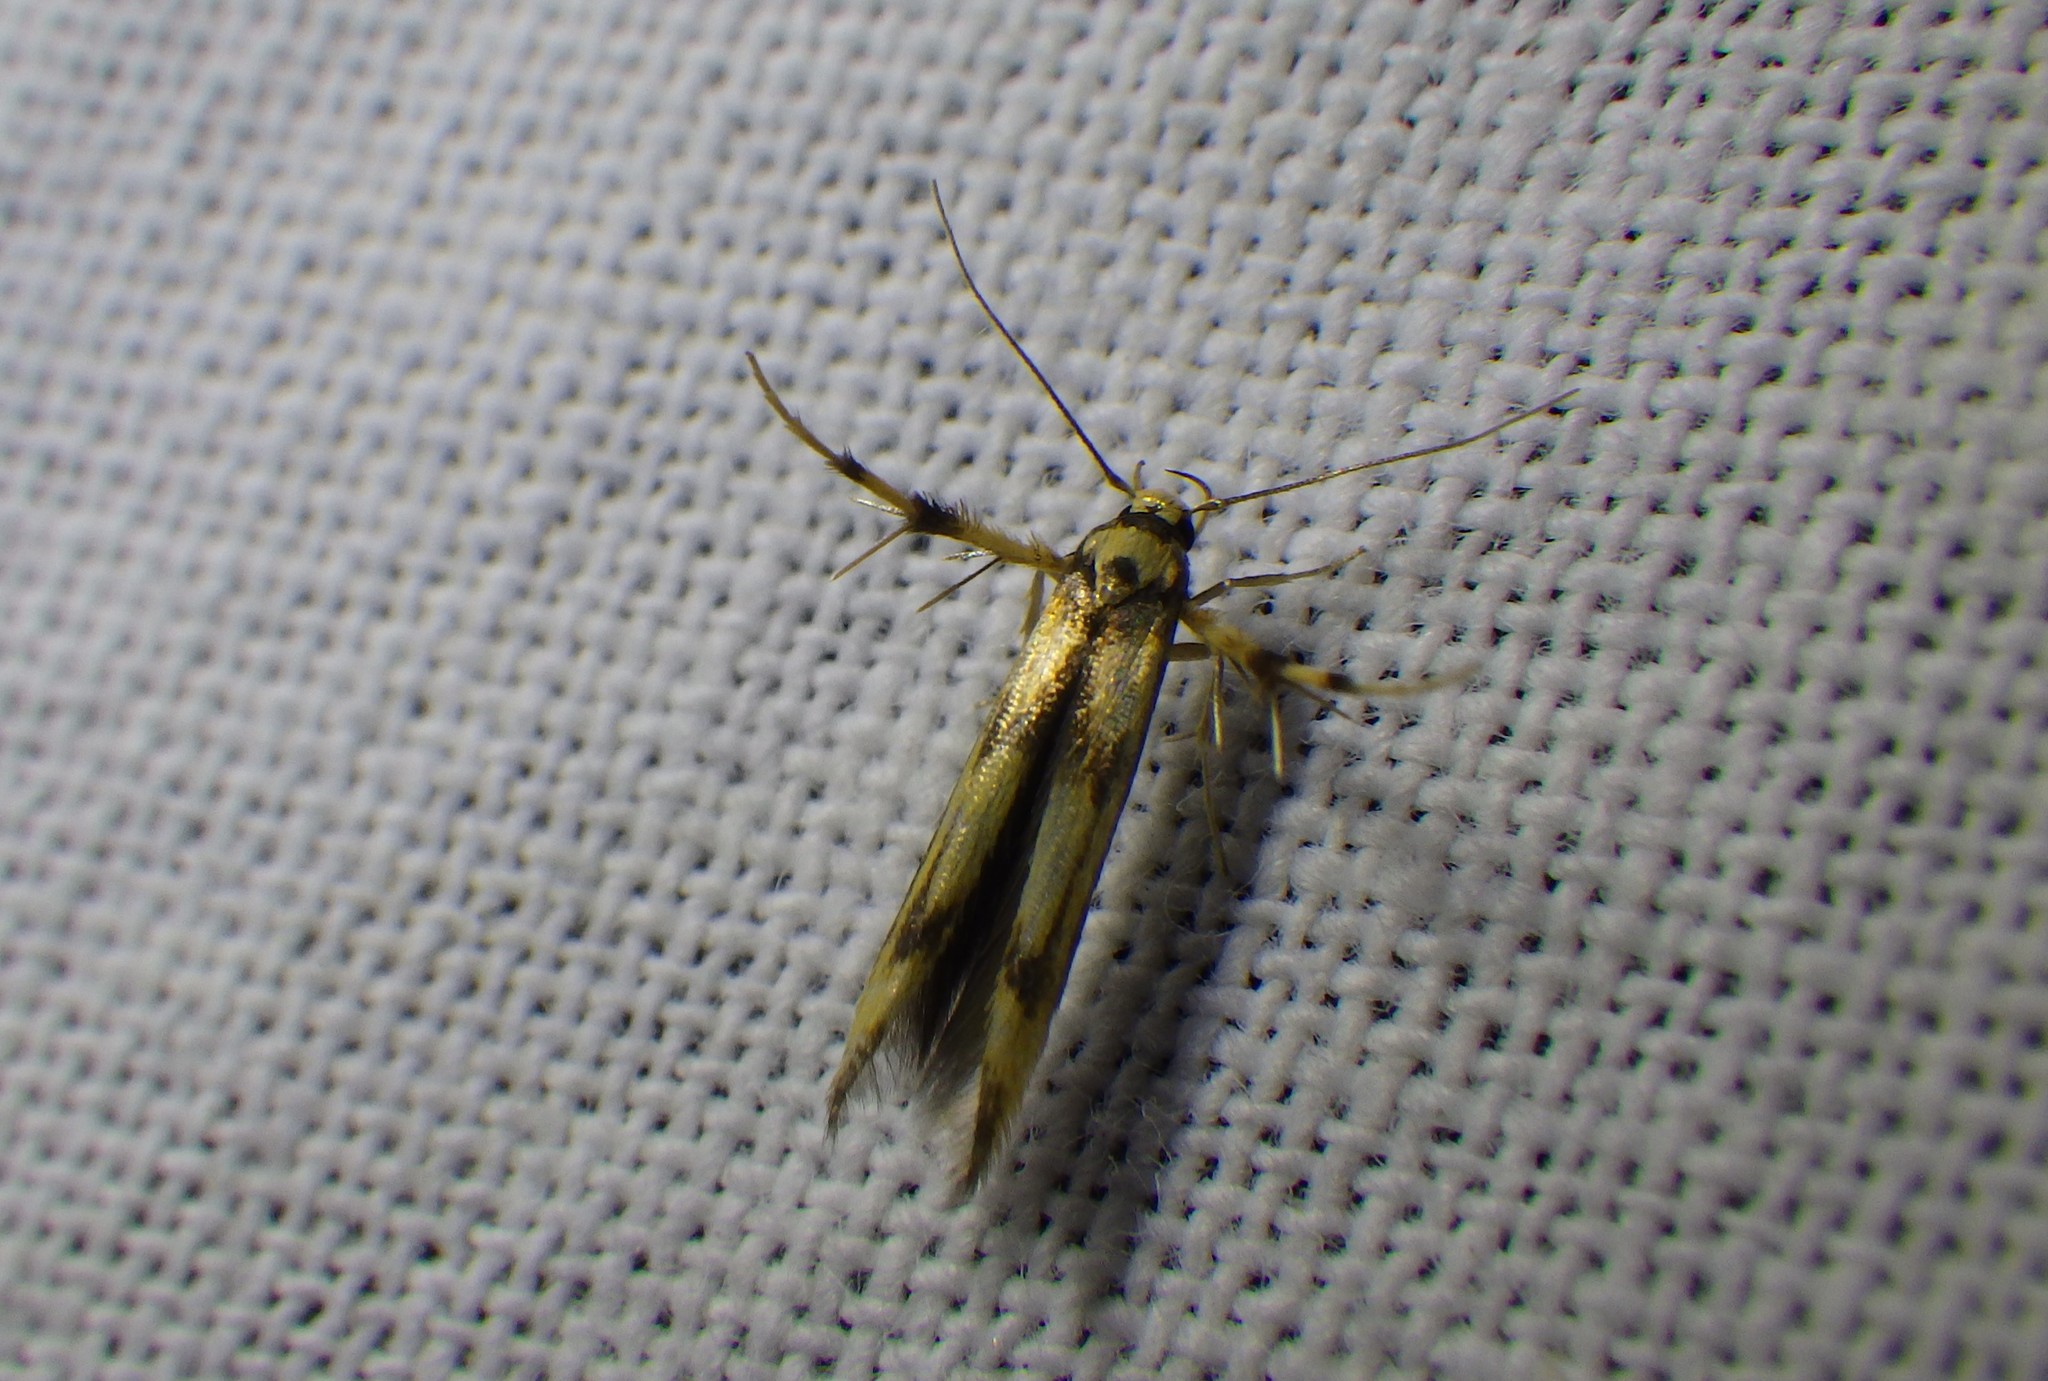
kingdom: Animalia
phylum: Arthropoda
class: Insecta
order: Lepidoptera
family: Stathmopodidae
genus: Stathmopoda
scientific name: Stathmopoda pedella
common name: Alder signal
